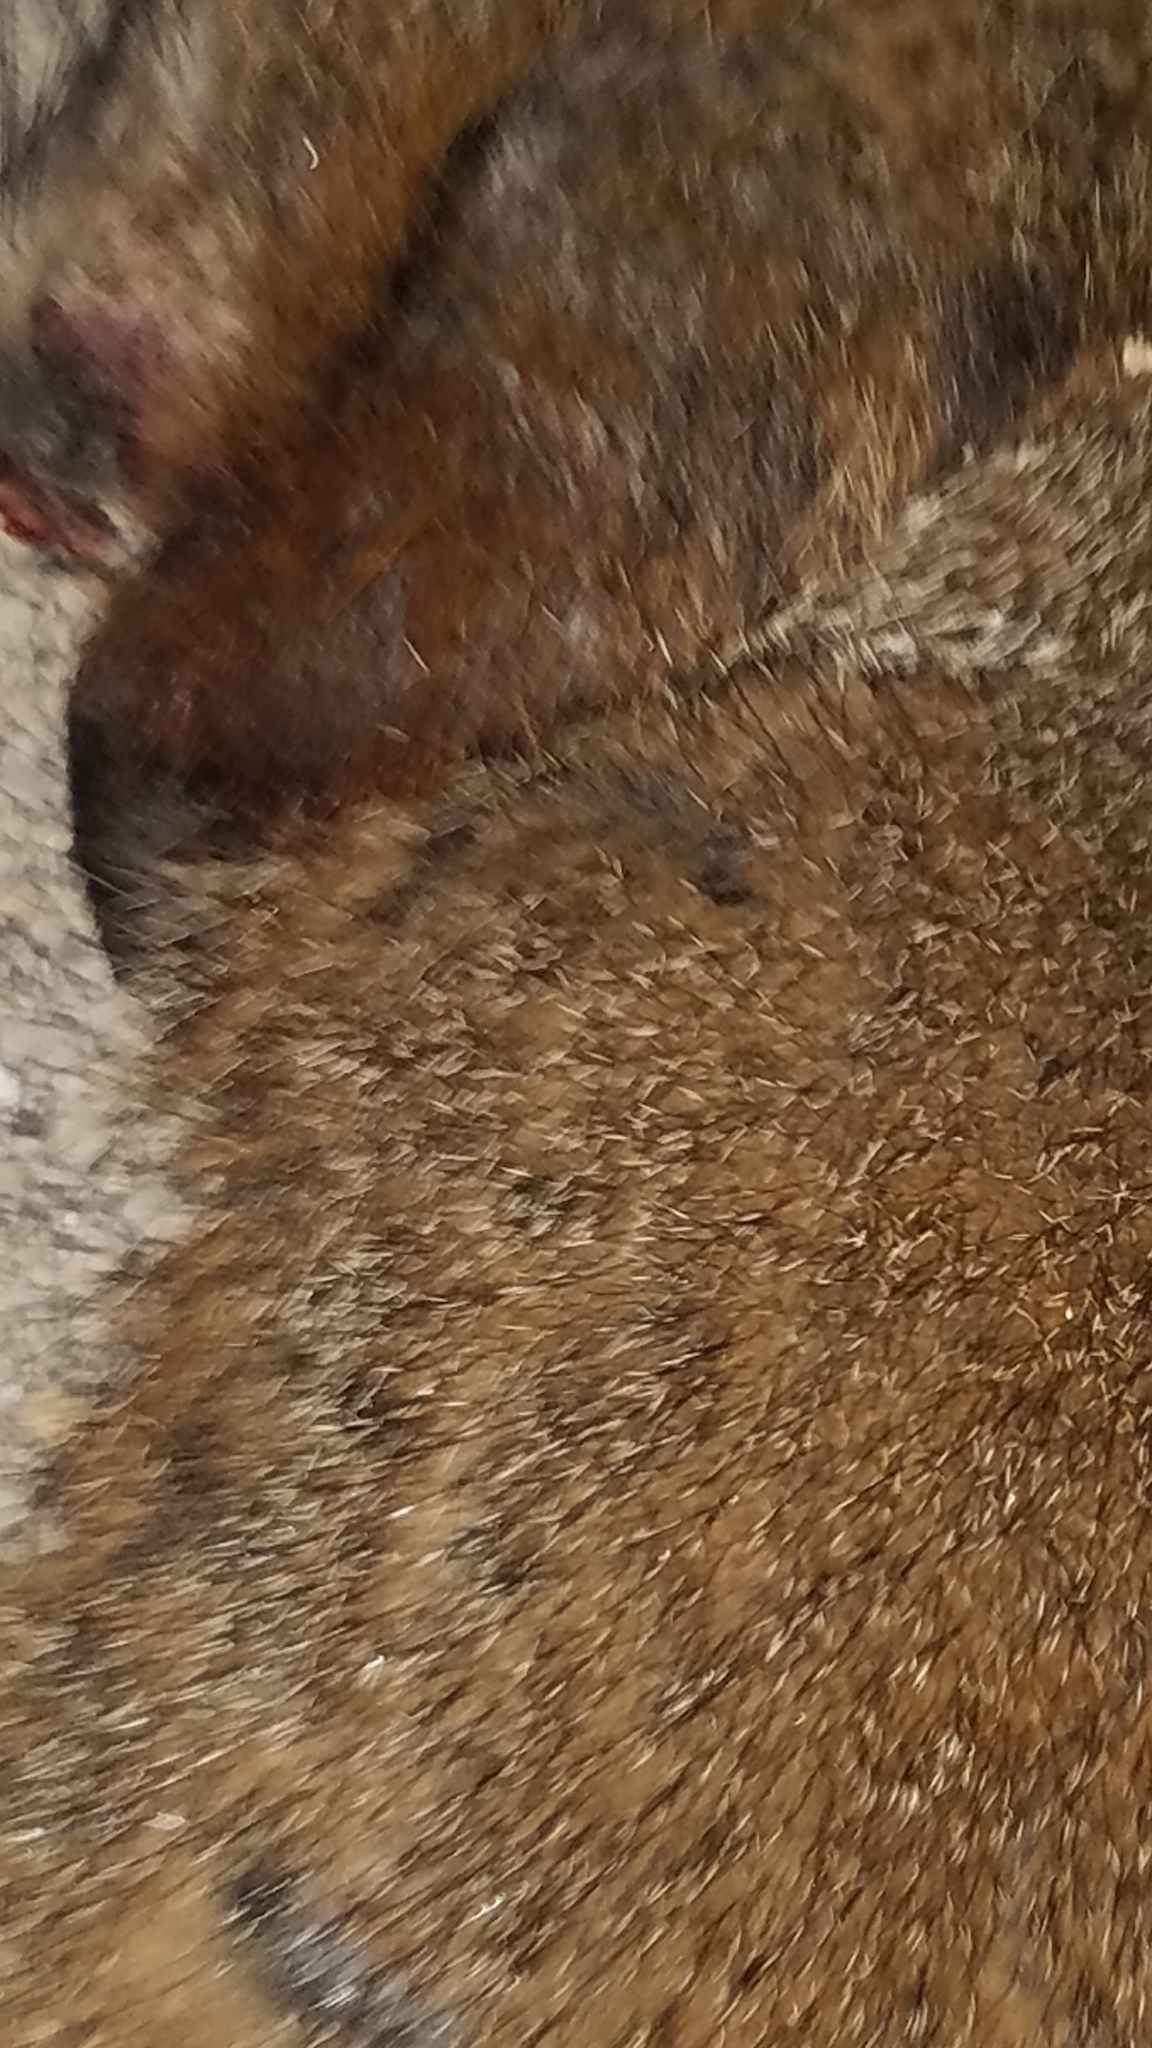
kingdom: Animalia
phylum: Chordata
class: Mammalia
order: Rodentia
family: Sciuridae
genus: Marmota
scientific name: Marmota monax
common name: Groundhog
